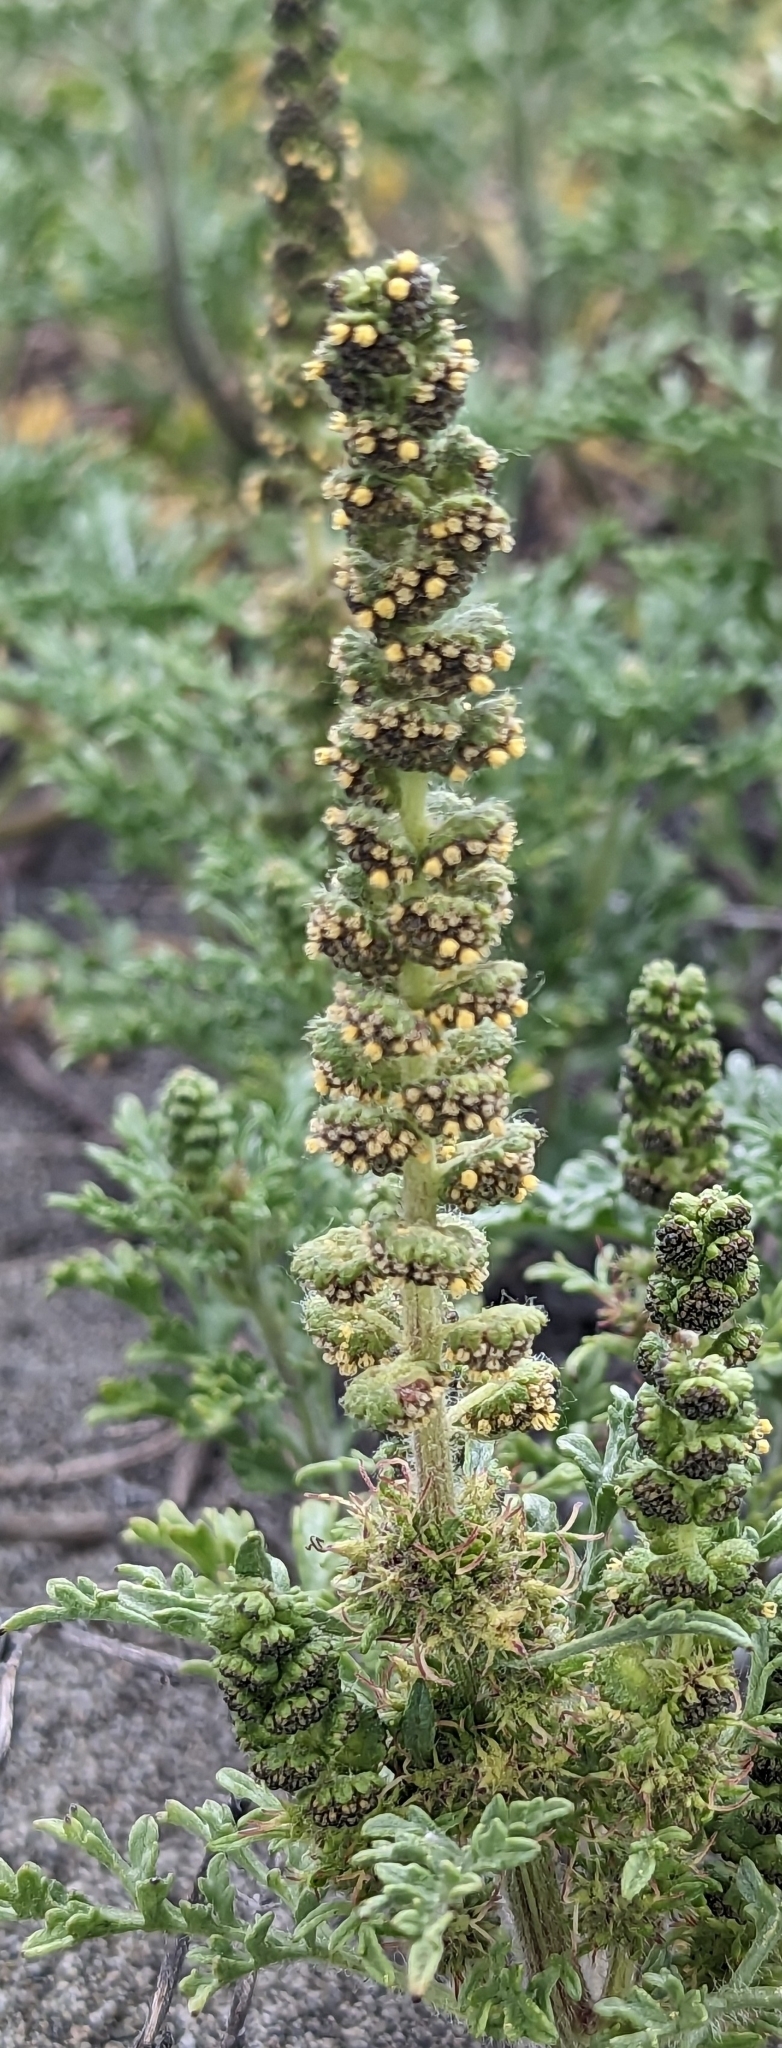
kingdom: Plantae
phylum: Tracheophyta
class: Magnoliopsida
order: Asterales
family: Asteraceae
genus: Ambrosia
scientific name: Ambrosia chamissonis
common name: Beachbur
